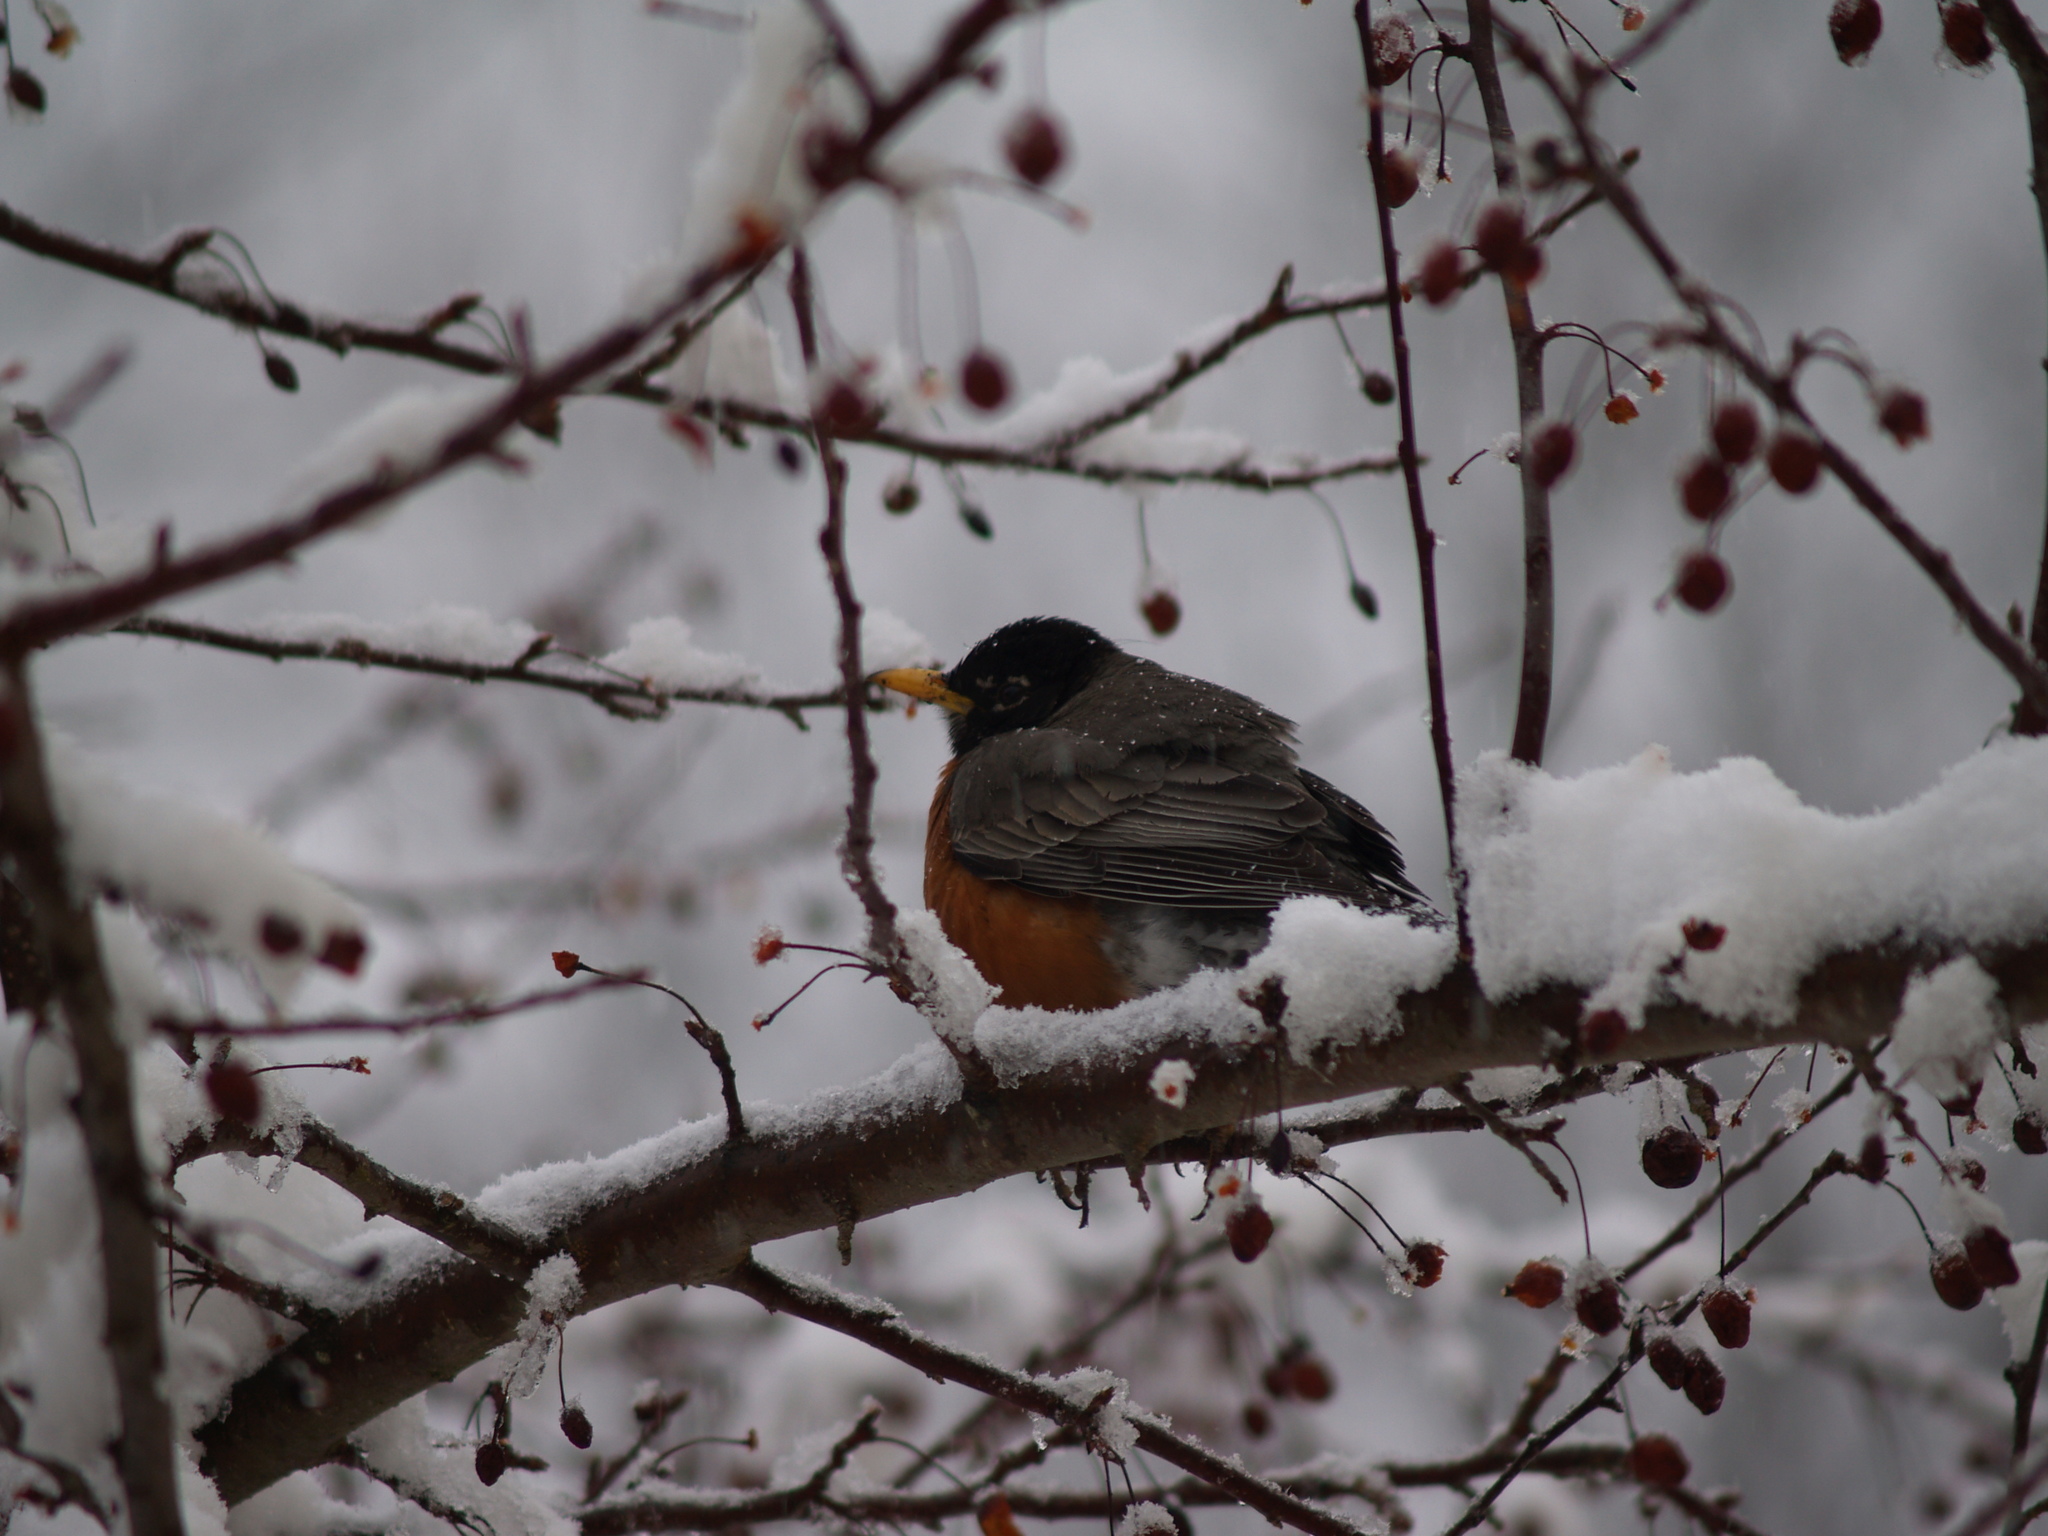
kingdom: Animalia
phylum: Chordata
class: Aves
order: Passeriformes
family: Turdidae
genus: Turdus
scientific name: Turdus migratorius
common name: American robin
